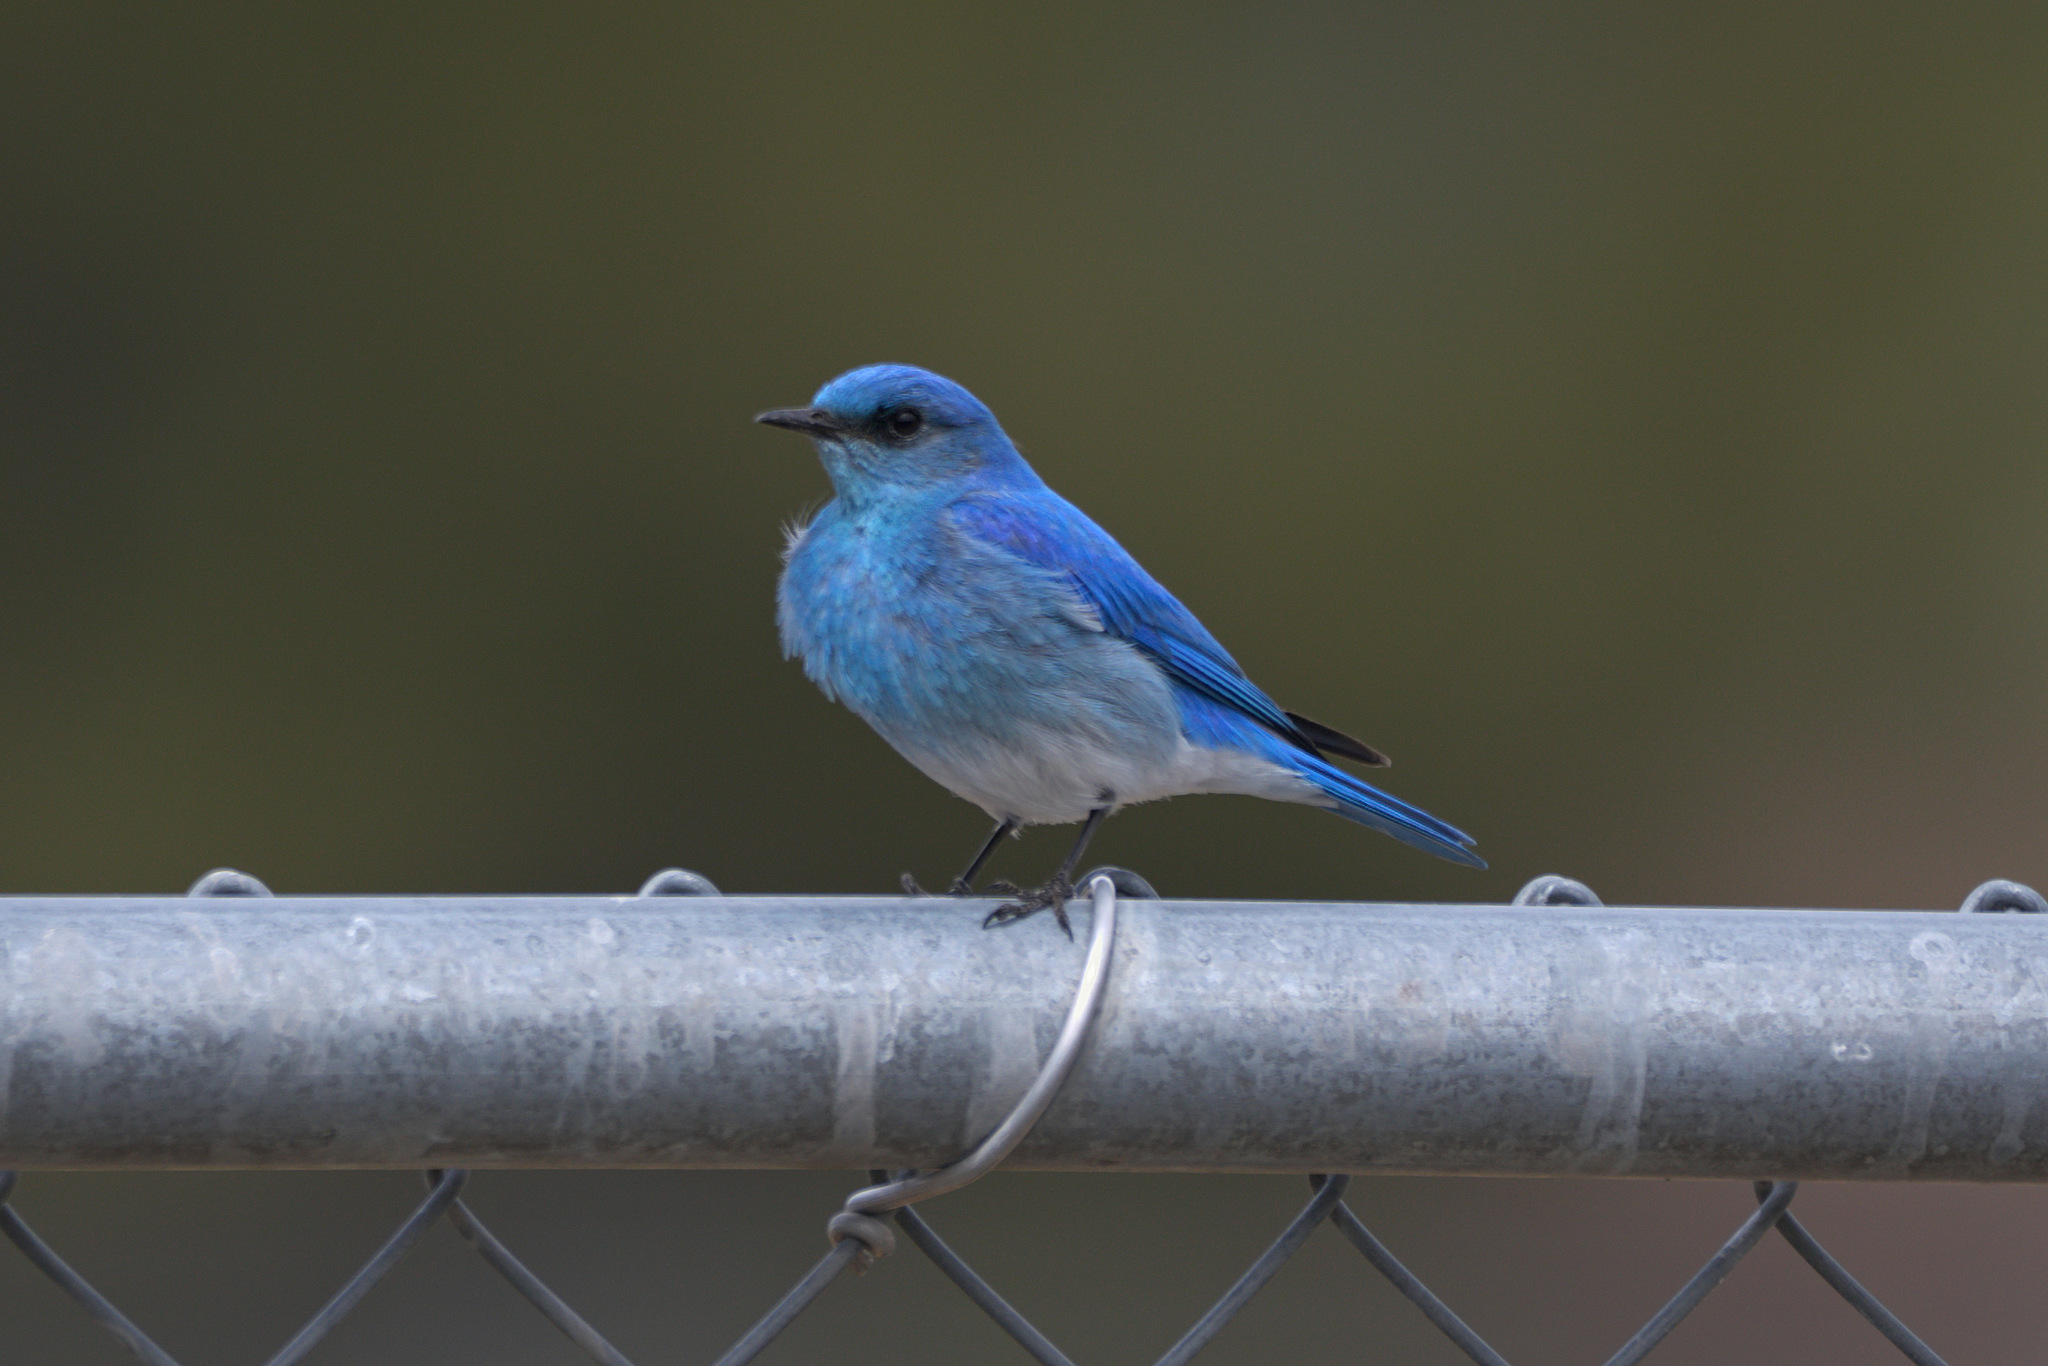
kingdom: Animalia
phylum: Chordata
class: Aves
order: Passeriformes
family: Turdidae
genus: Sialia
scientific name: Sialia currucoides
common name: Mountain bluebird
